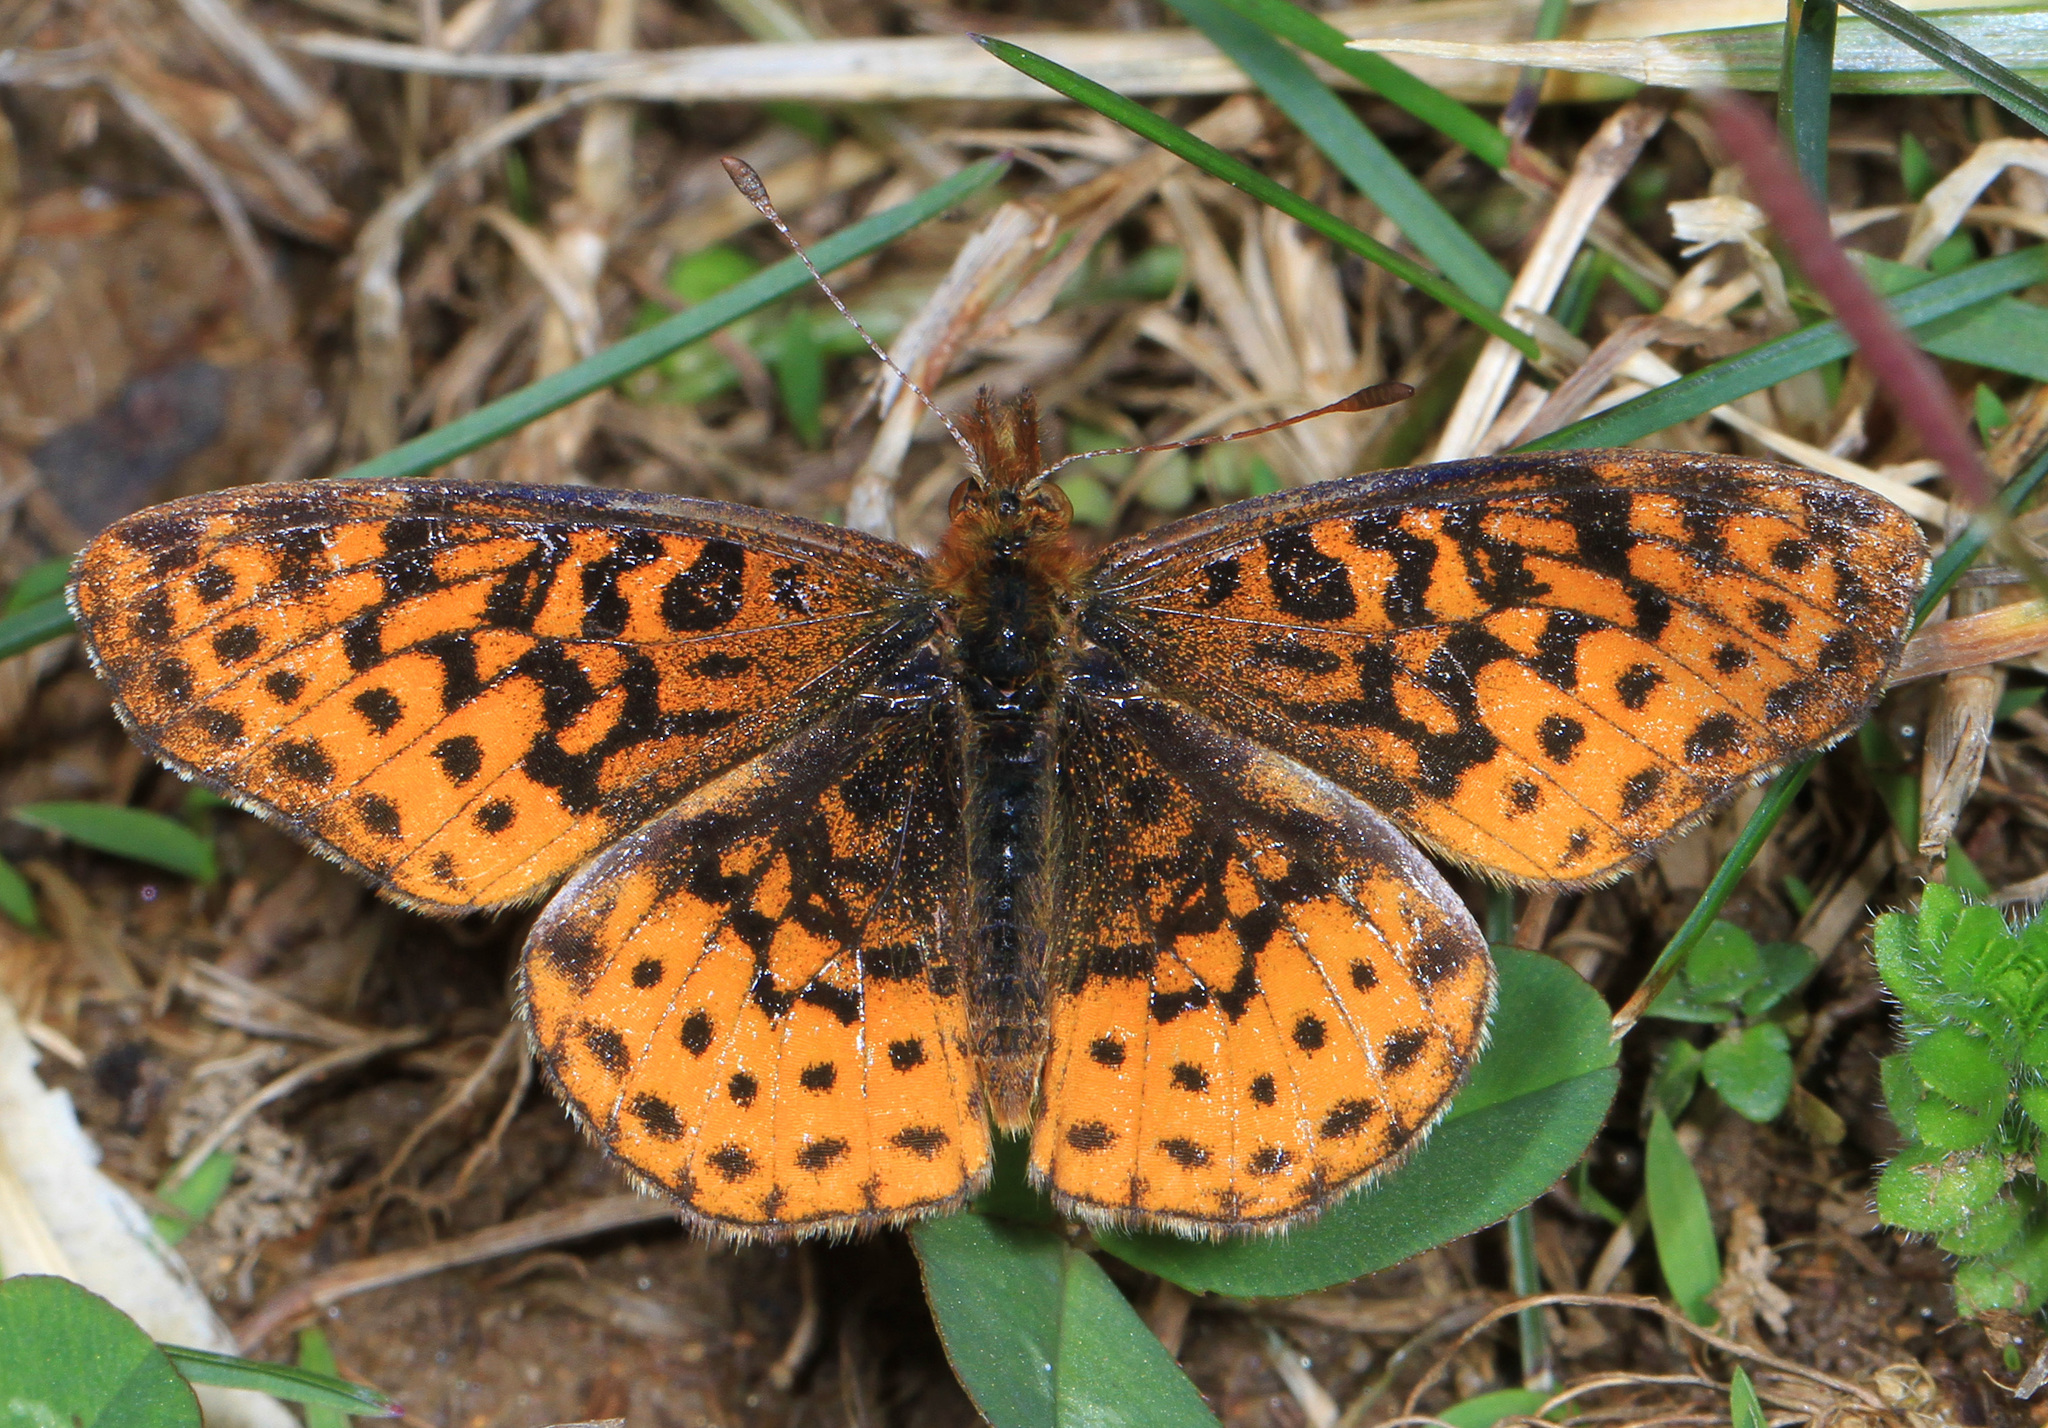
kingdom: Animalia
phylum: Arthropoda
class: Insecta
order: Lepidoptera
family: Nymphalidae
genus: Clossiana
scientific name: Clossiana toddi
